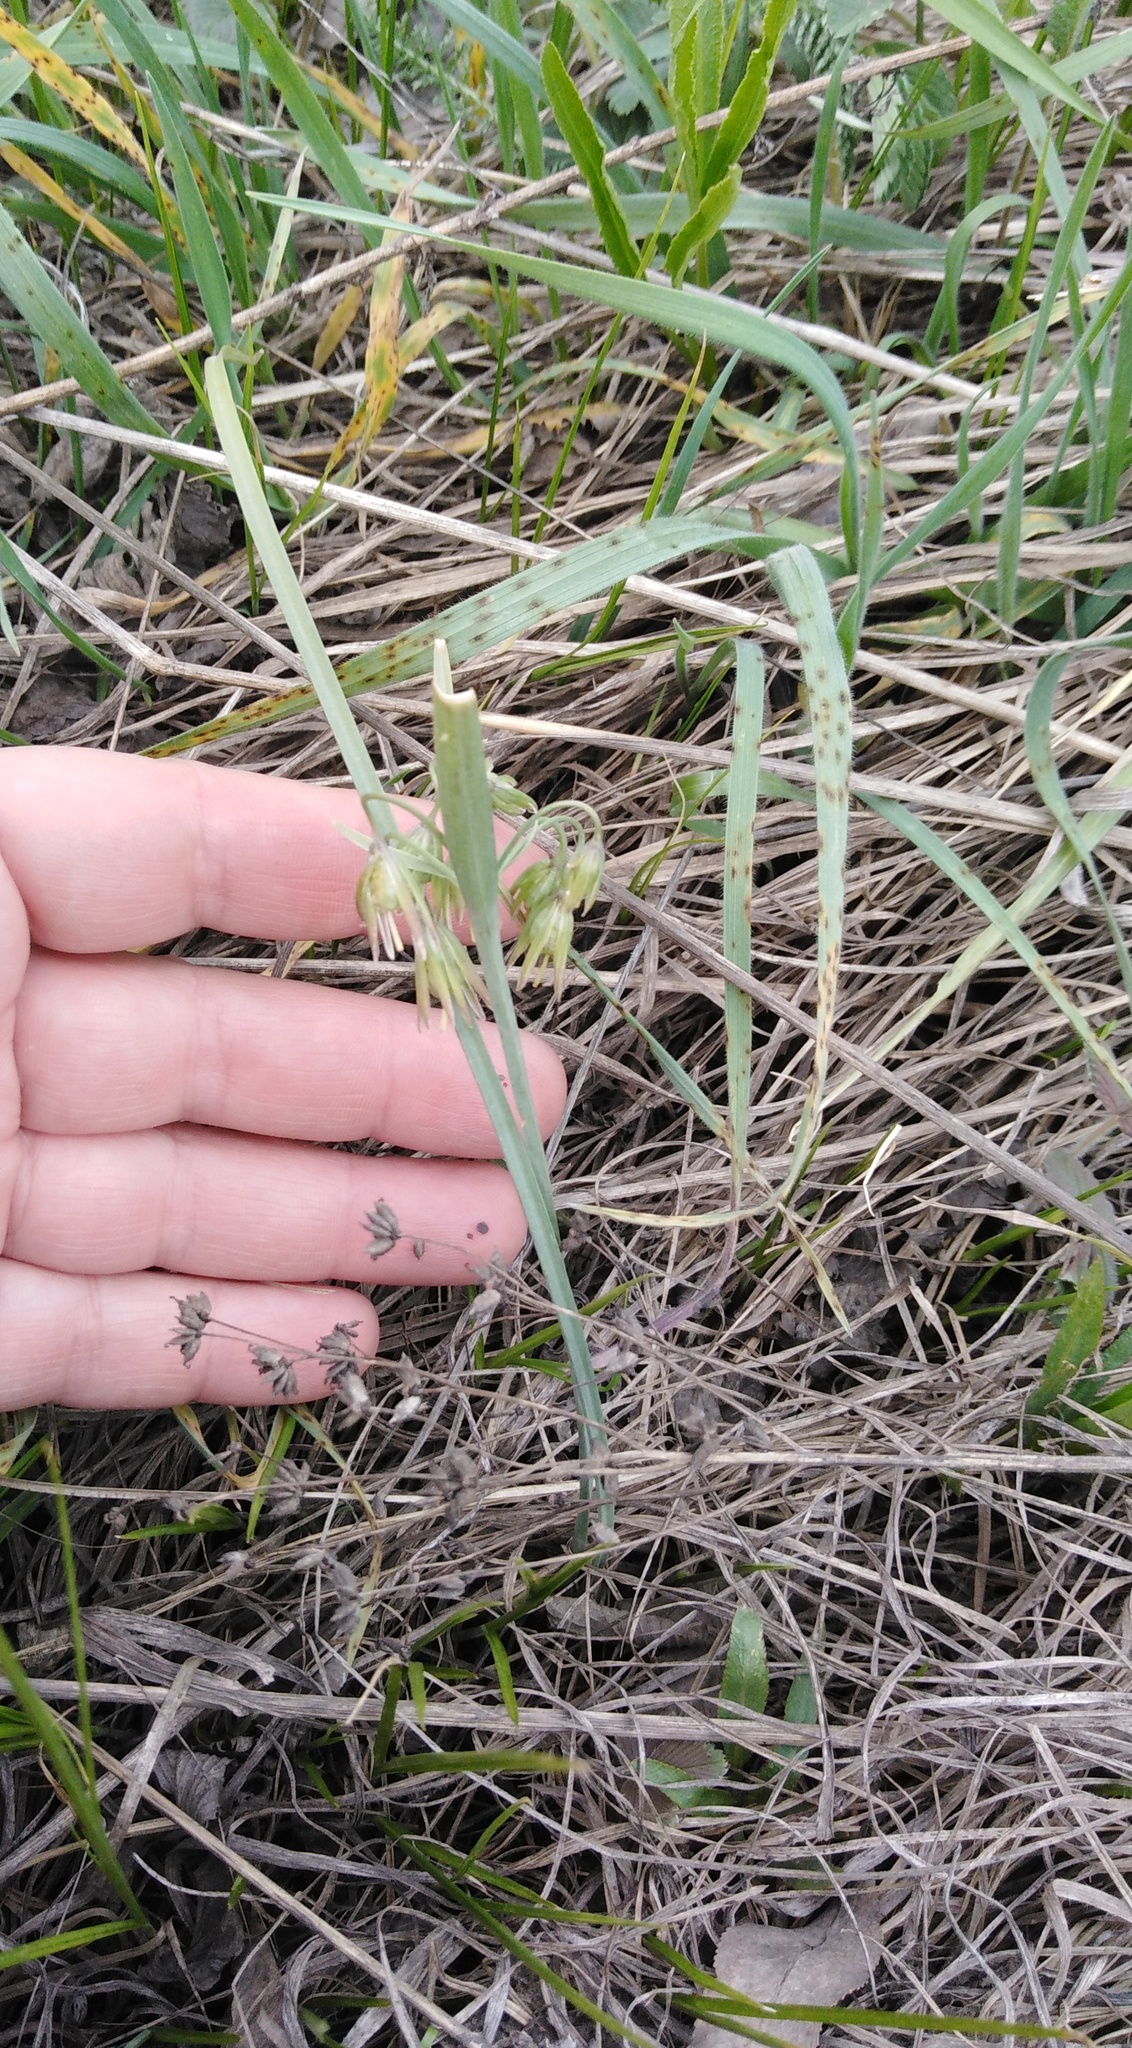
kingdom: Plantae
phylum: Tracheophyta
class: Liliopsida
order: Liliales
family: Liliaceae
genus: Gagea
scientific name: Gagea fragifera
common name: Lily
